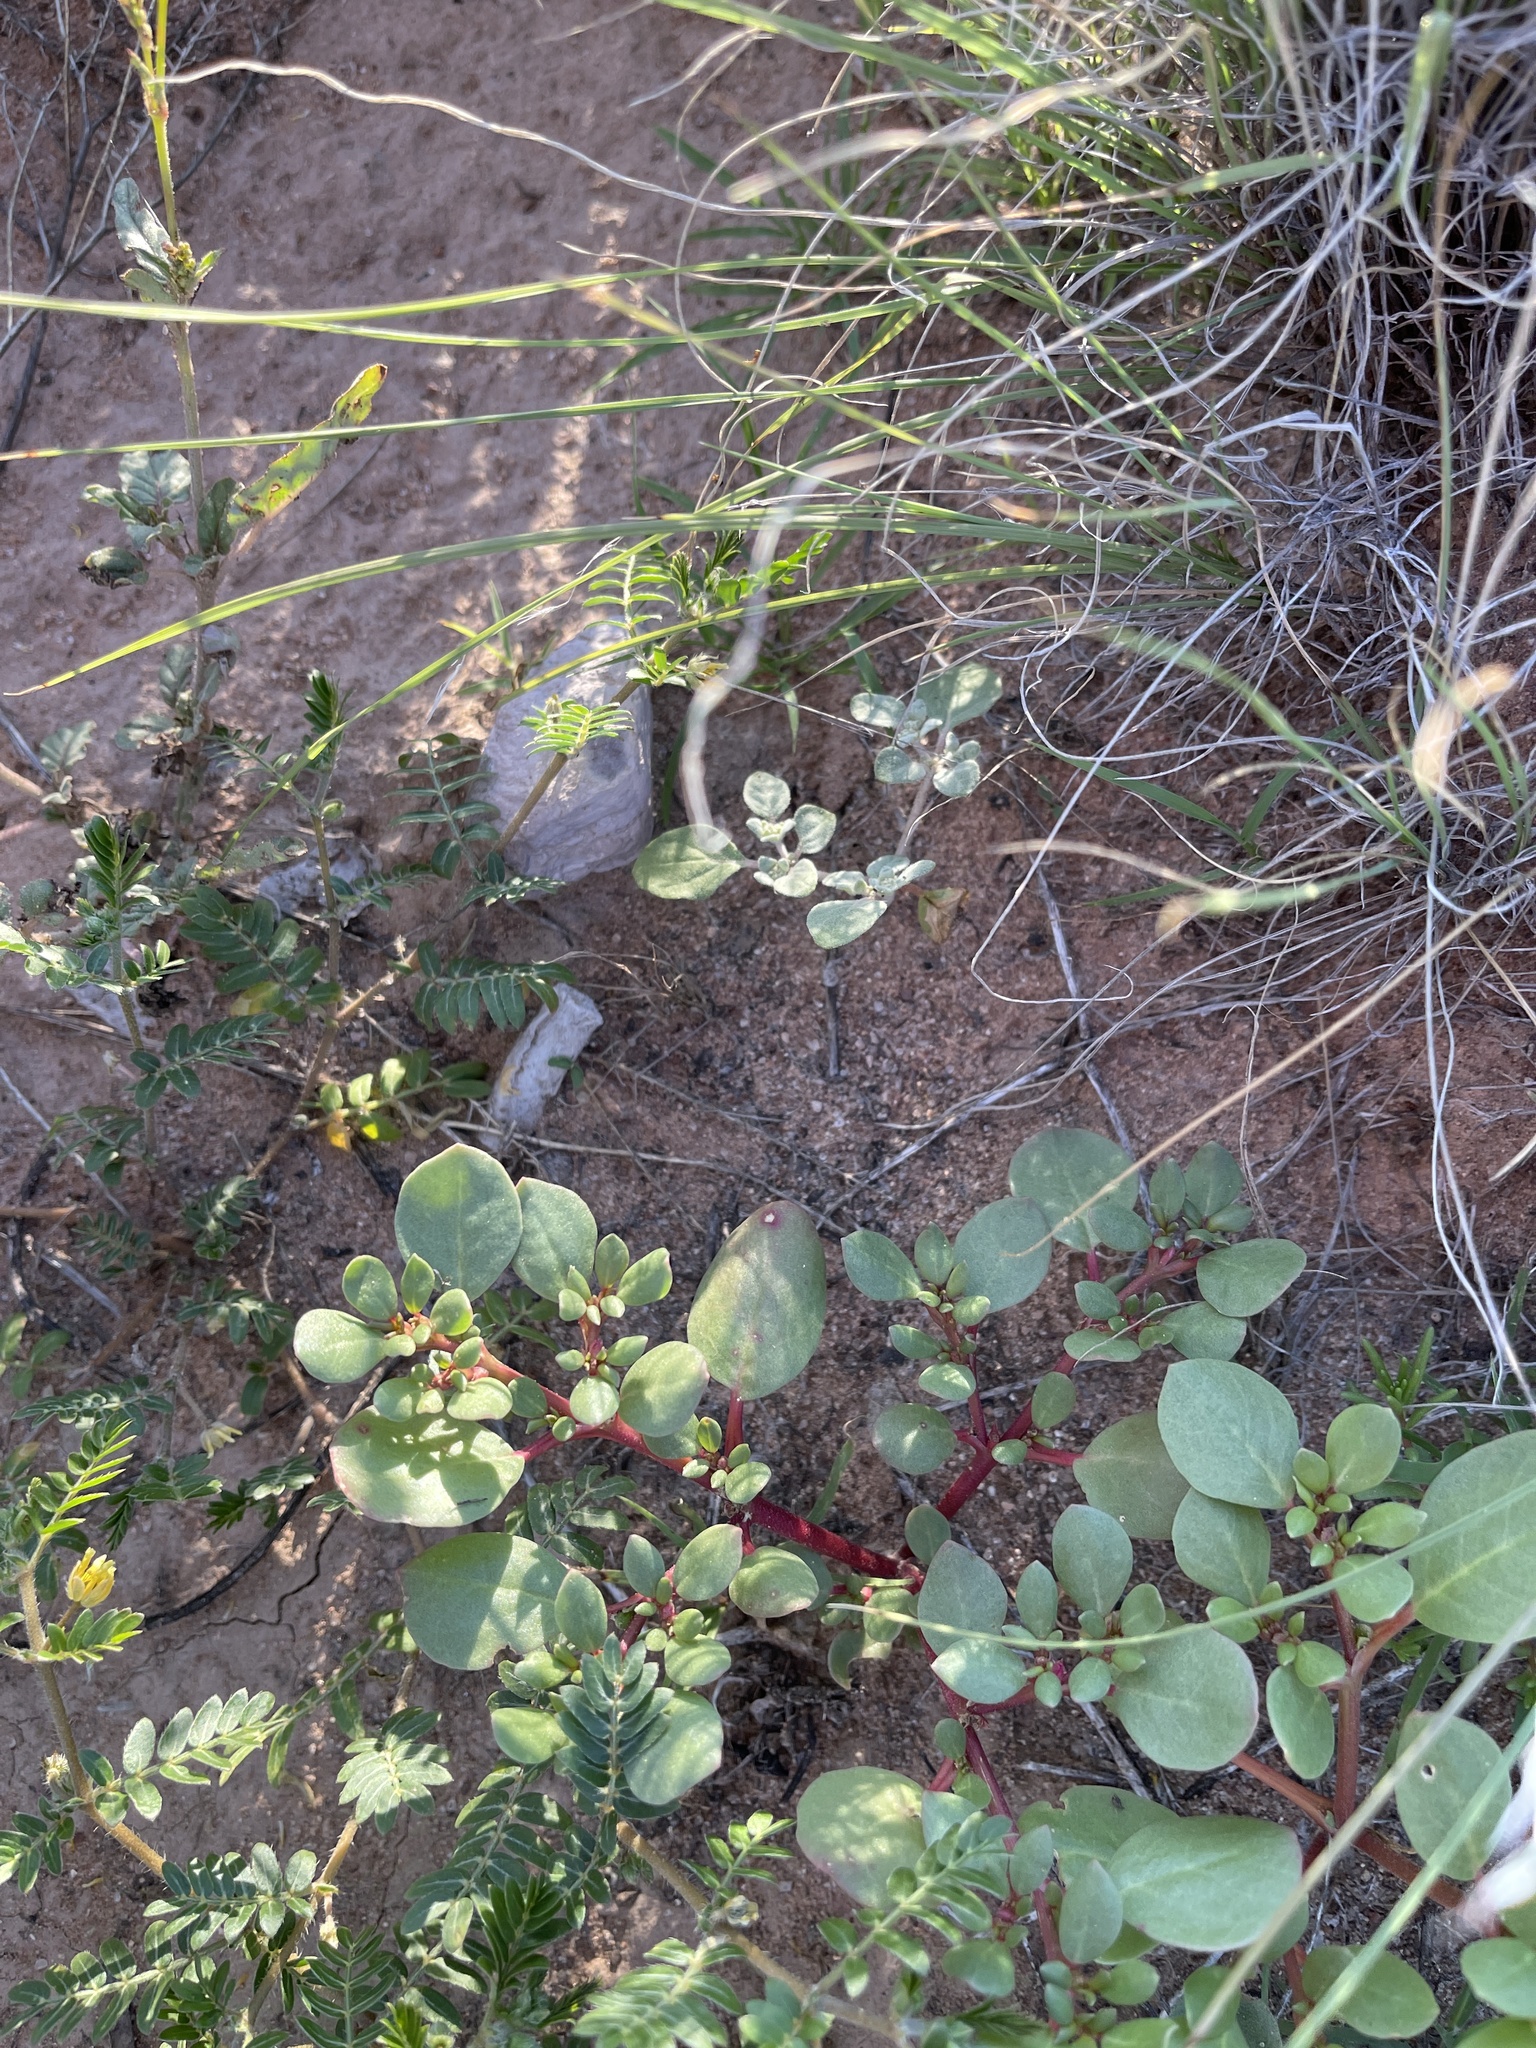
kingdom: Plantae
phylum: Tracheophyta
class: Magnoliopsida
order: Caryophyllales
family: Aizoaceae
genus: Trianthema
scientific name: Trianthema portulacastrum
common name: Desert horsepurslane
